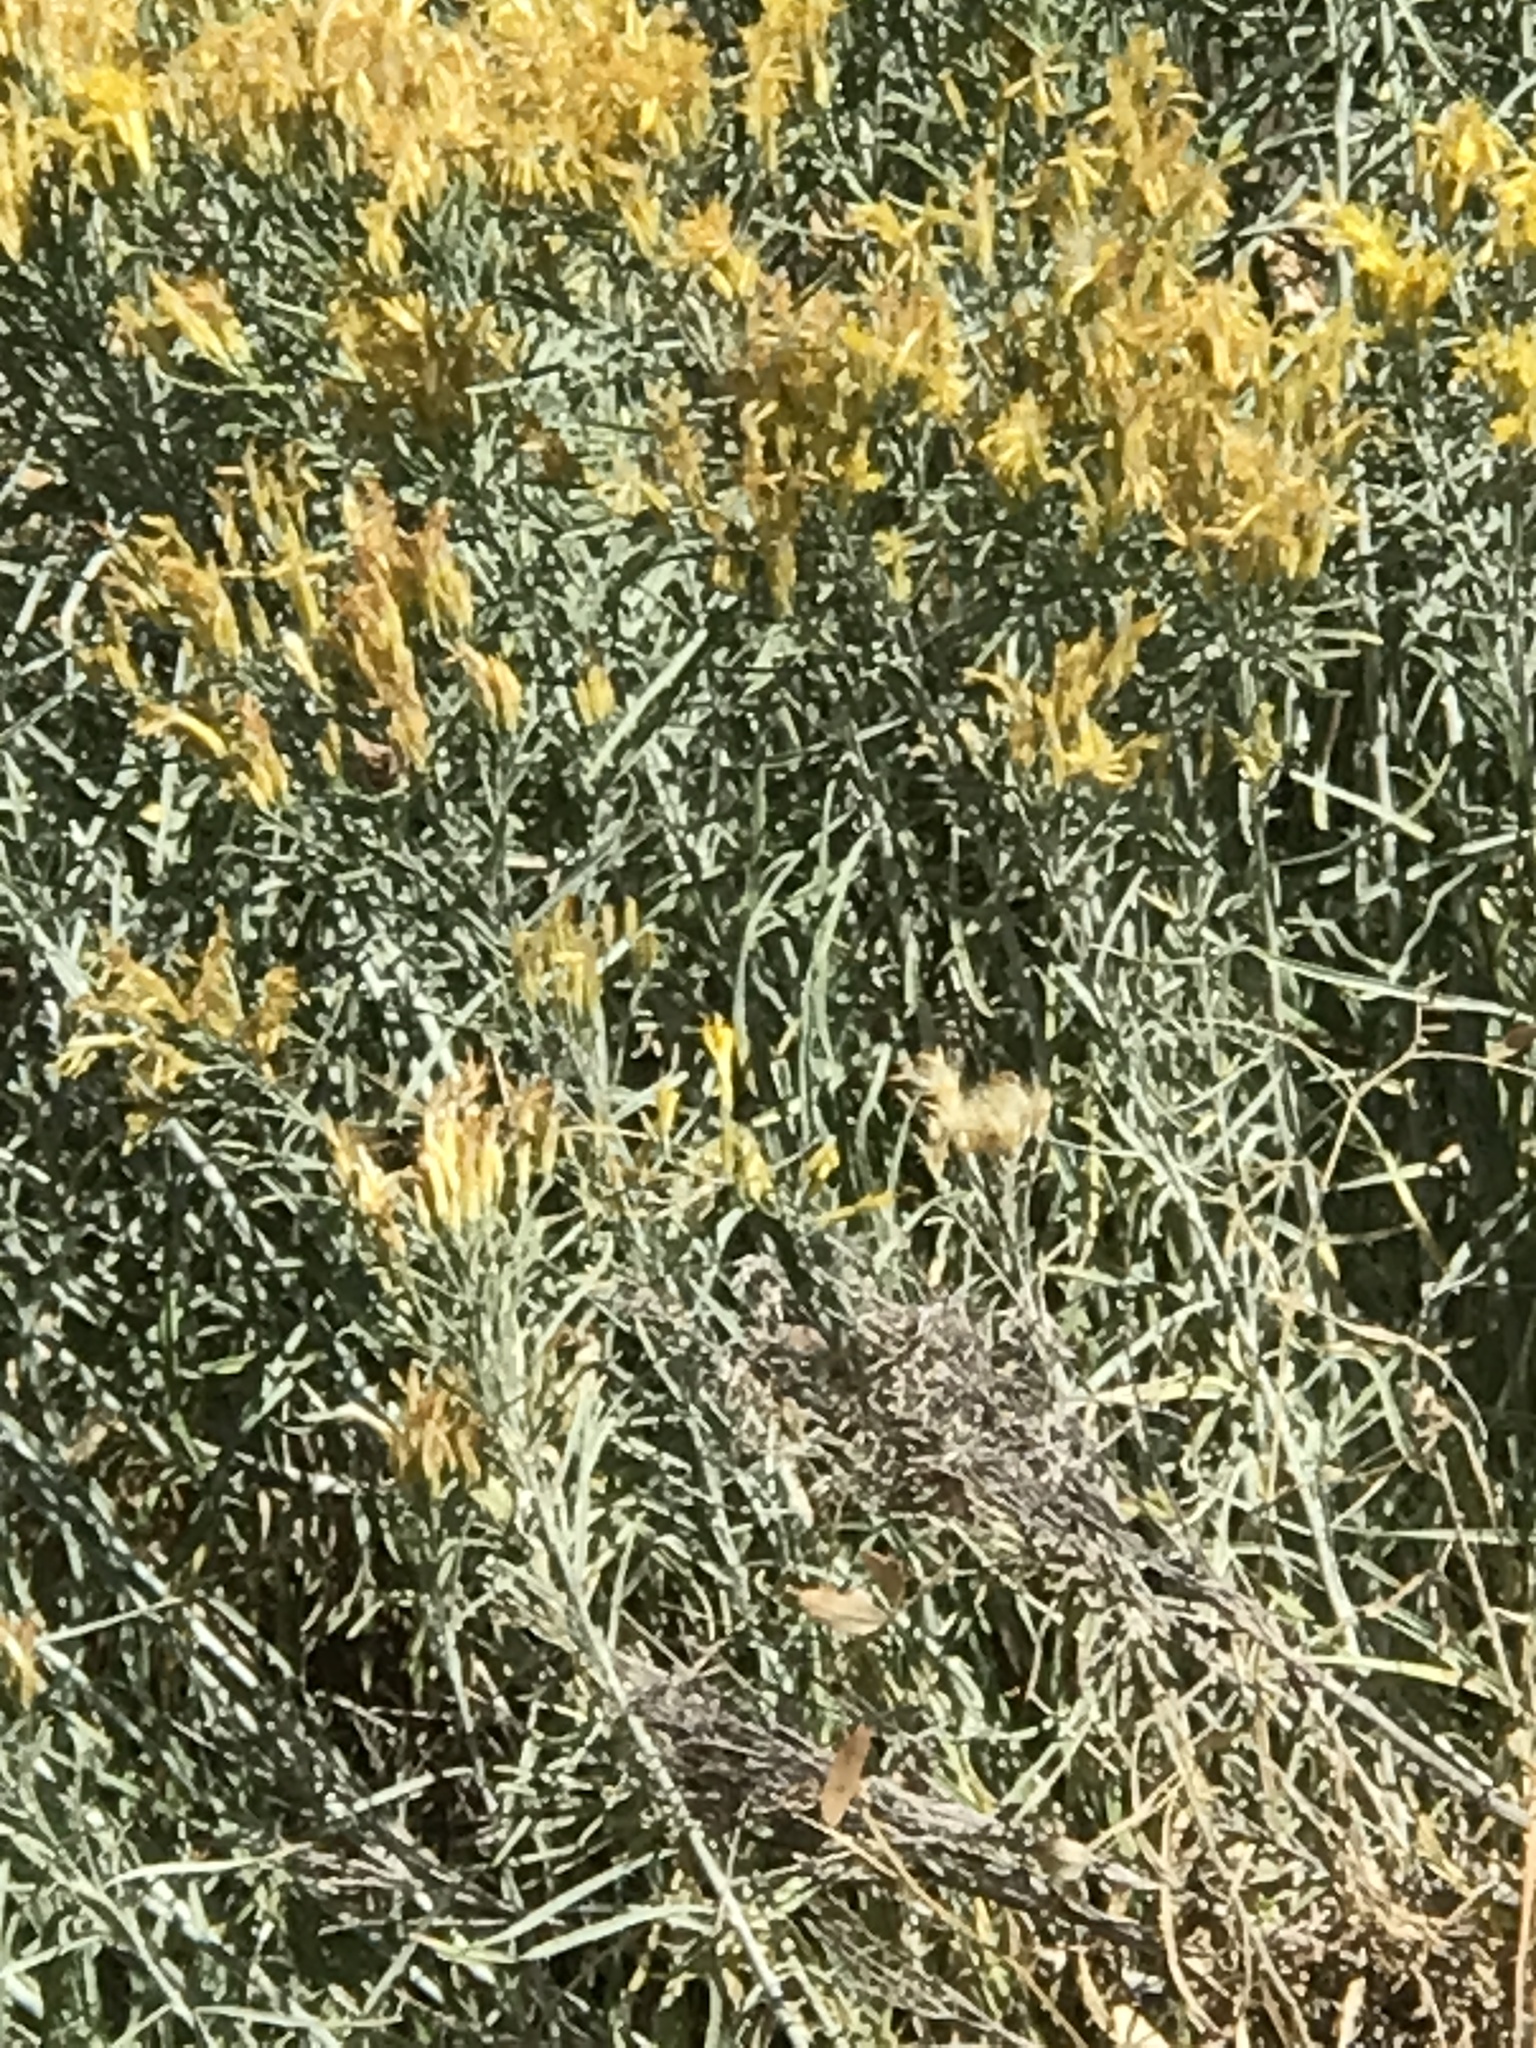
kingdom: Plantae
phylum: Tracheophyta
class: Magnoliopsida
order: Asterales
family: Asteraceae
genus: Ericameria
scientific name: Ericameria nauseosa
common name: Rubber rabbitbrush
